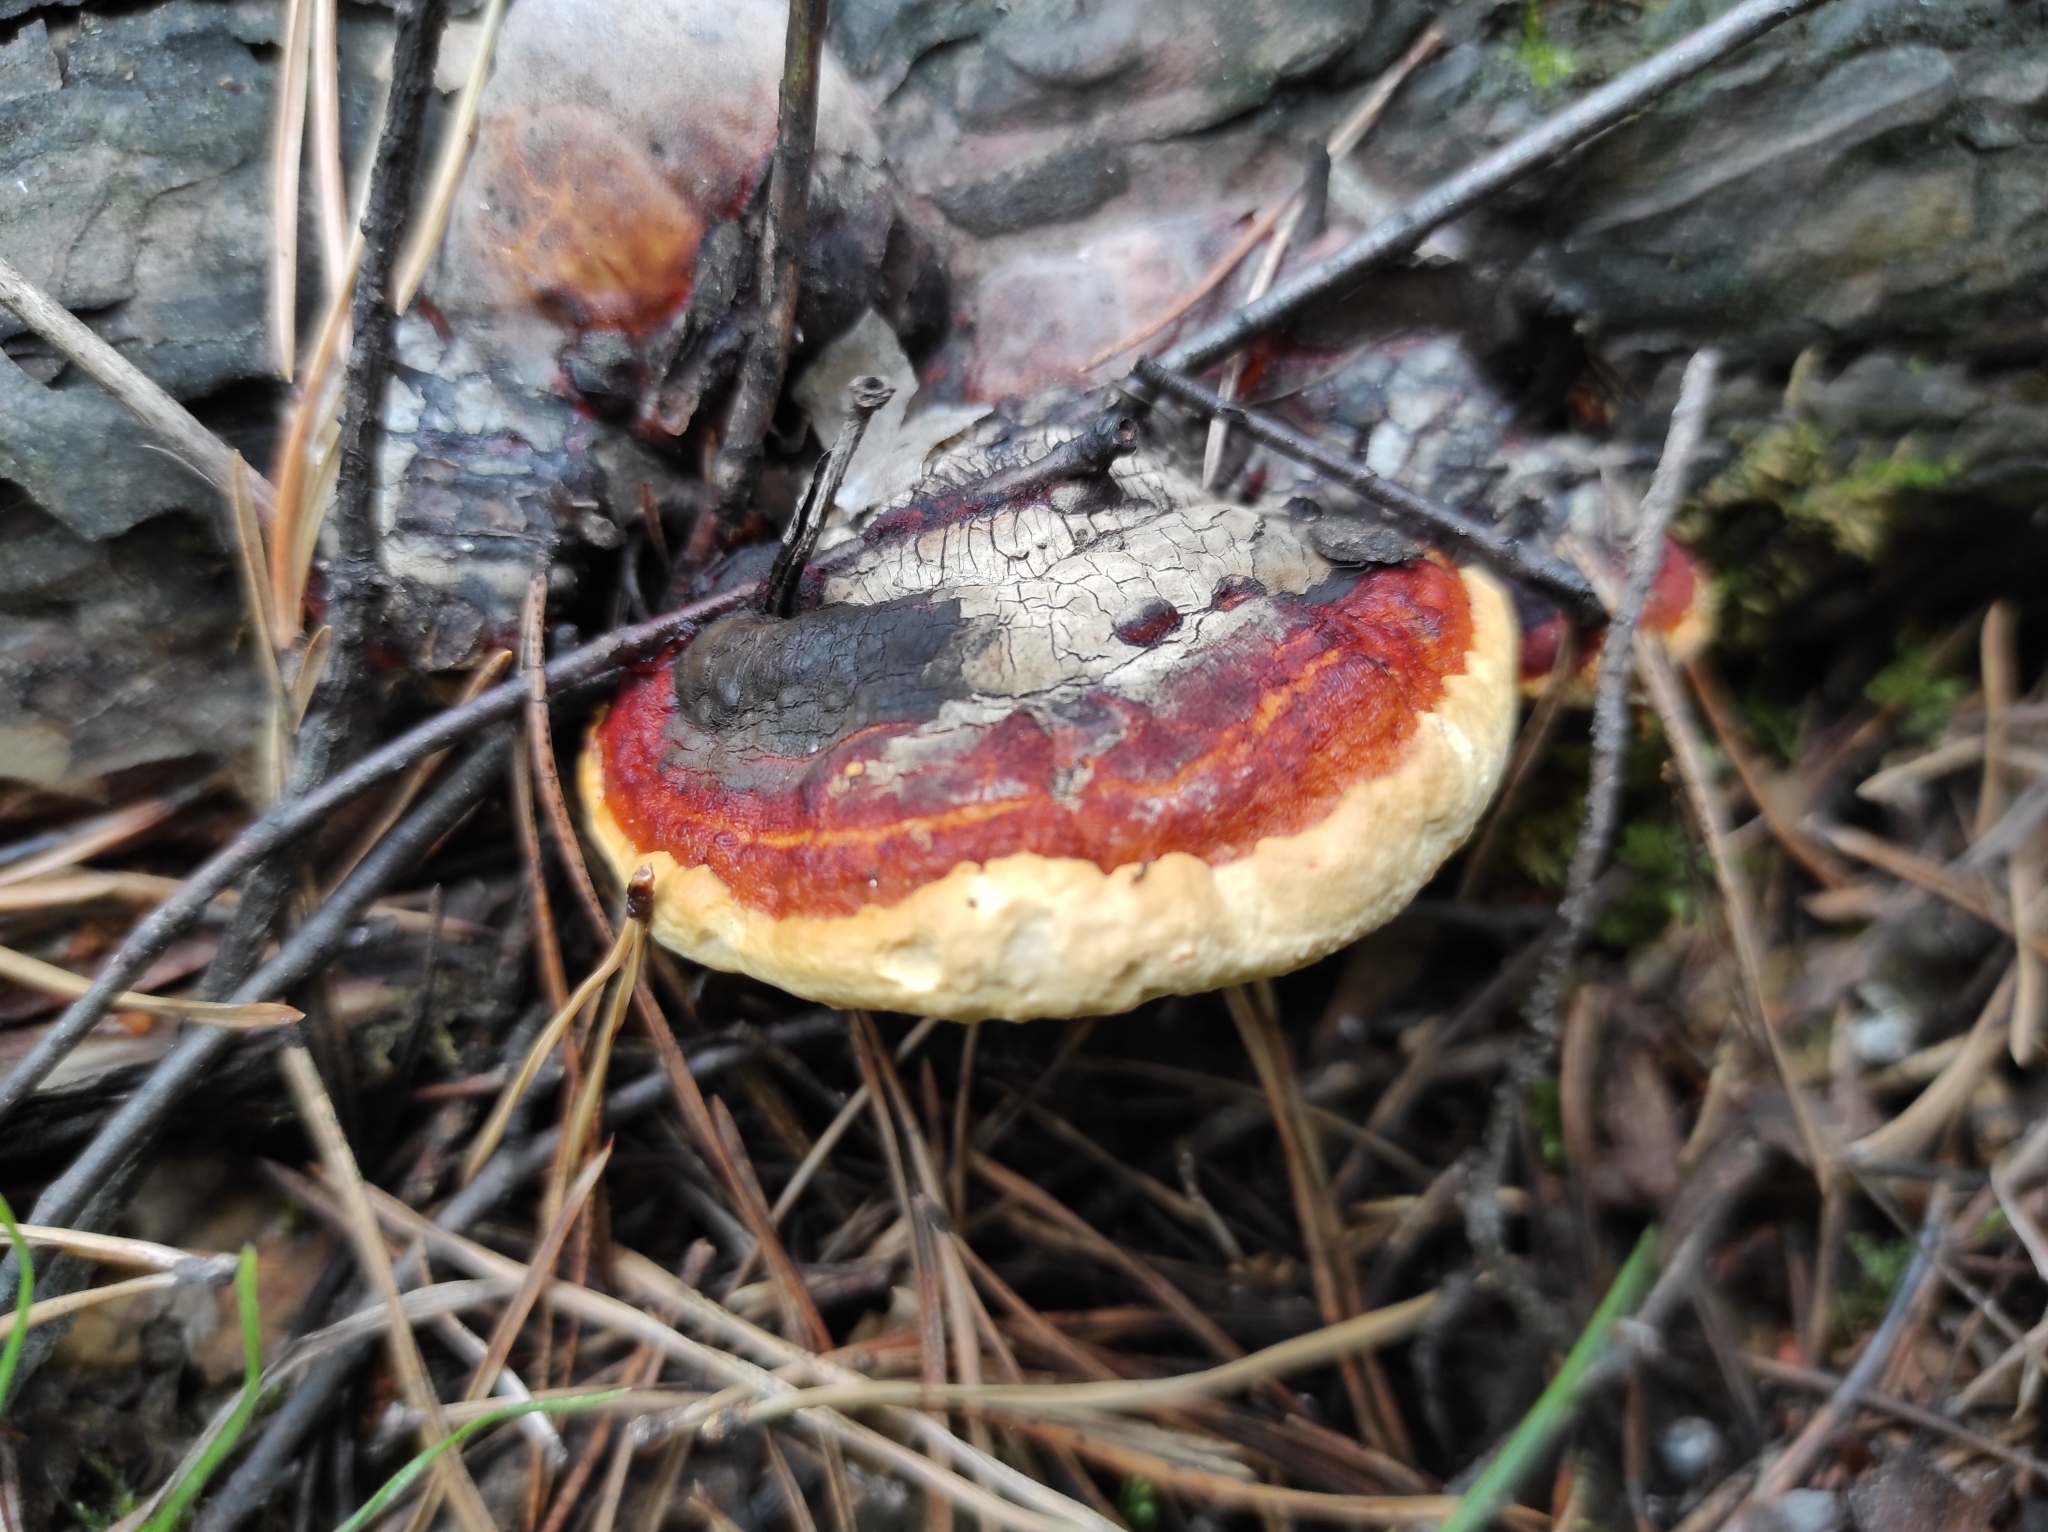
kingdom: Fungi
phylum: Basidiomycota
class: Agaricomycetes
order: Polyporales
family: Fomitopsidaceae
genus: Fomitopsis
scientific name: Fomitopsis pinicola
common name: Red-belted bracket
